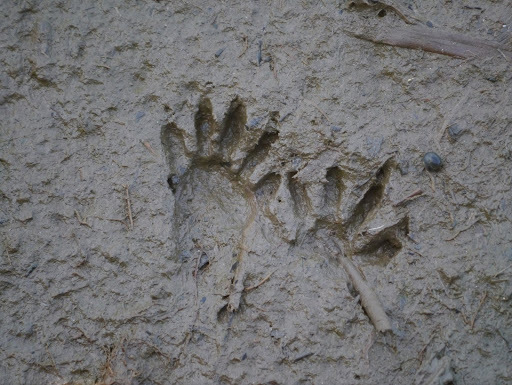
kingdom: Animalia
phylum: Chordata
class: Mammalia
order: Carnivora
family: Procyonidae
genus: Procyon
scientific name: Procyon lotor
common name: Raccoon
